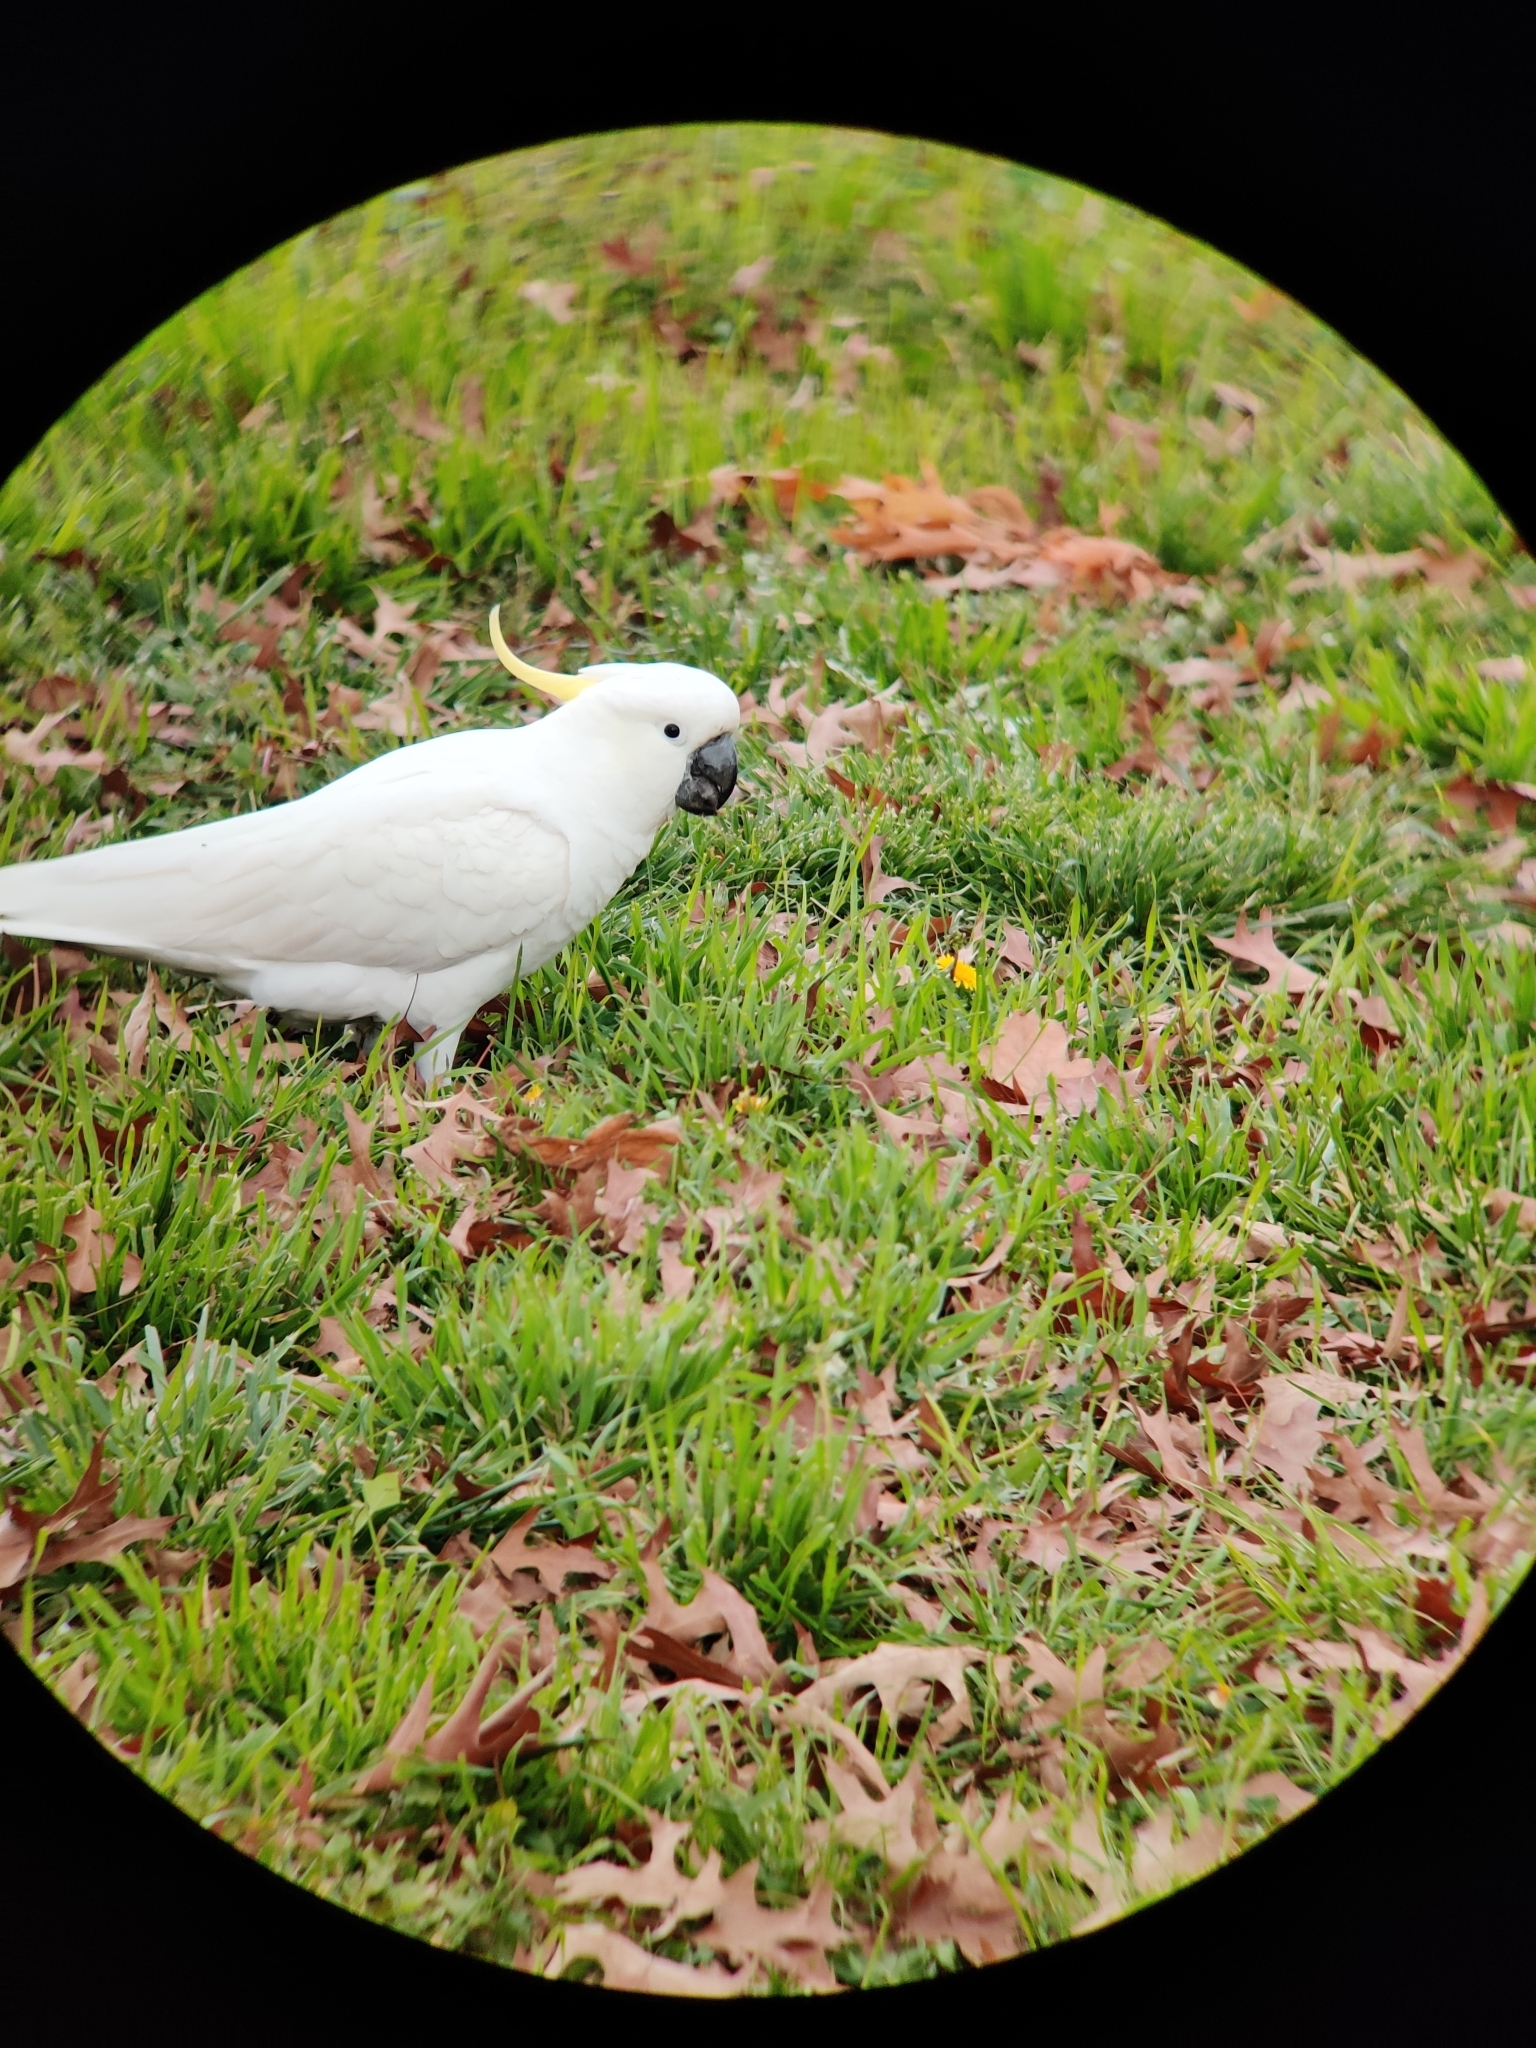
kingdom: Animalia
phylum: Chordata
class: Aves
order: Psittaciformes
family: Psittacidae
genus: Cacatua
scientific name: Cacatua galerita
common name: Sulphur-crested cockatoo
